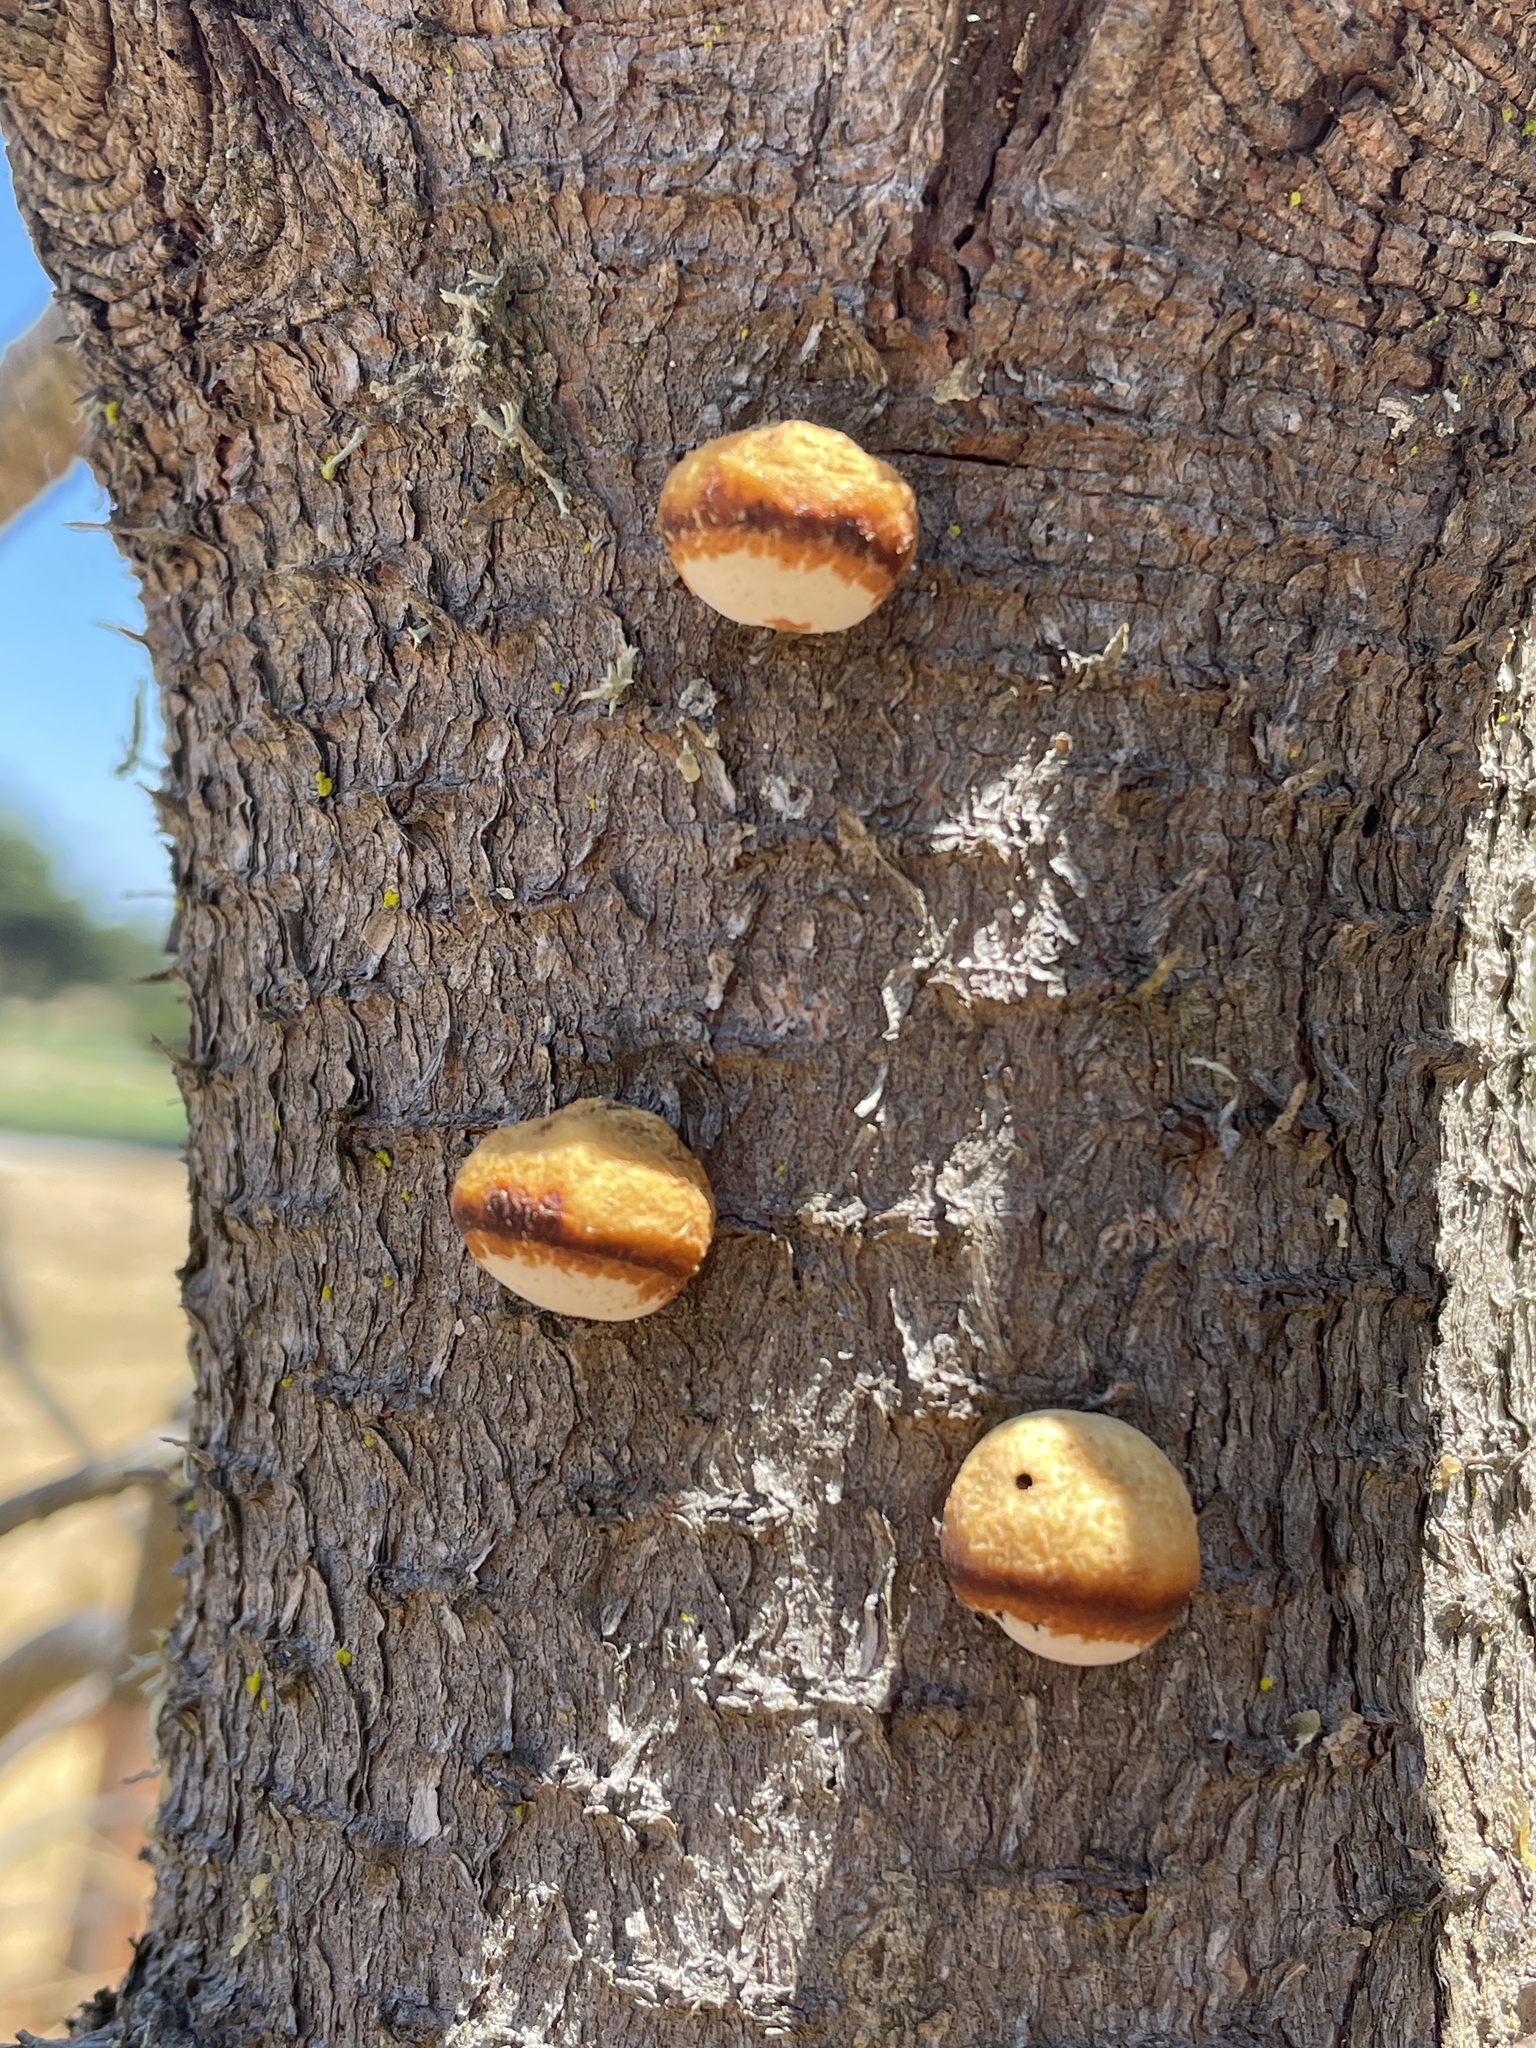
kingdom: Fungi
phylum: Basidiomycota
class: Agaricomycetes
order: Polyporales
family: Polyporaceae
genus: Cryptoporus
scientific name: Cryptoporus volvatus
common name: Veiled polypore
